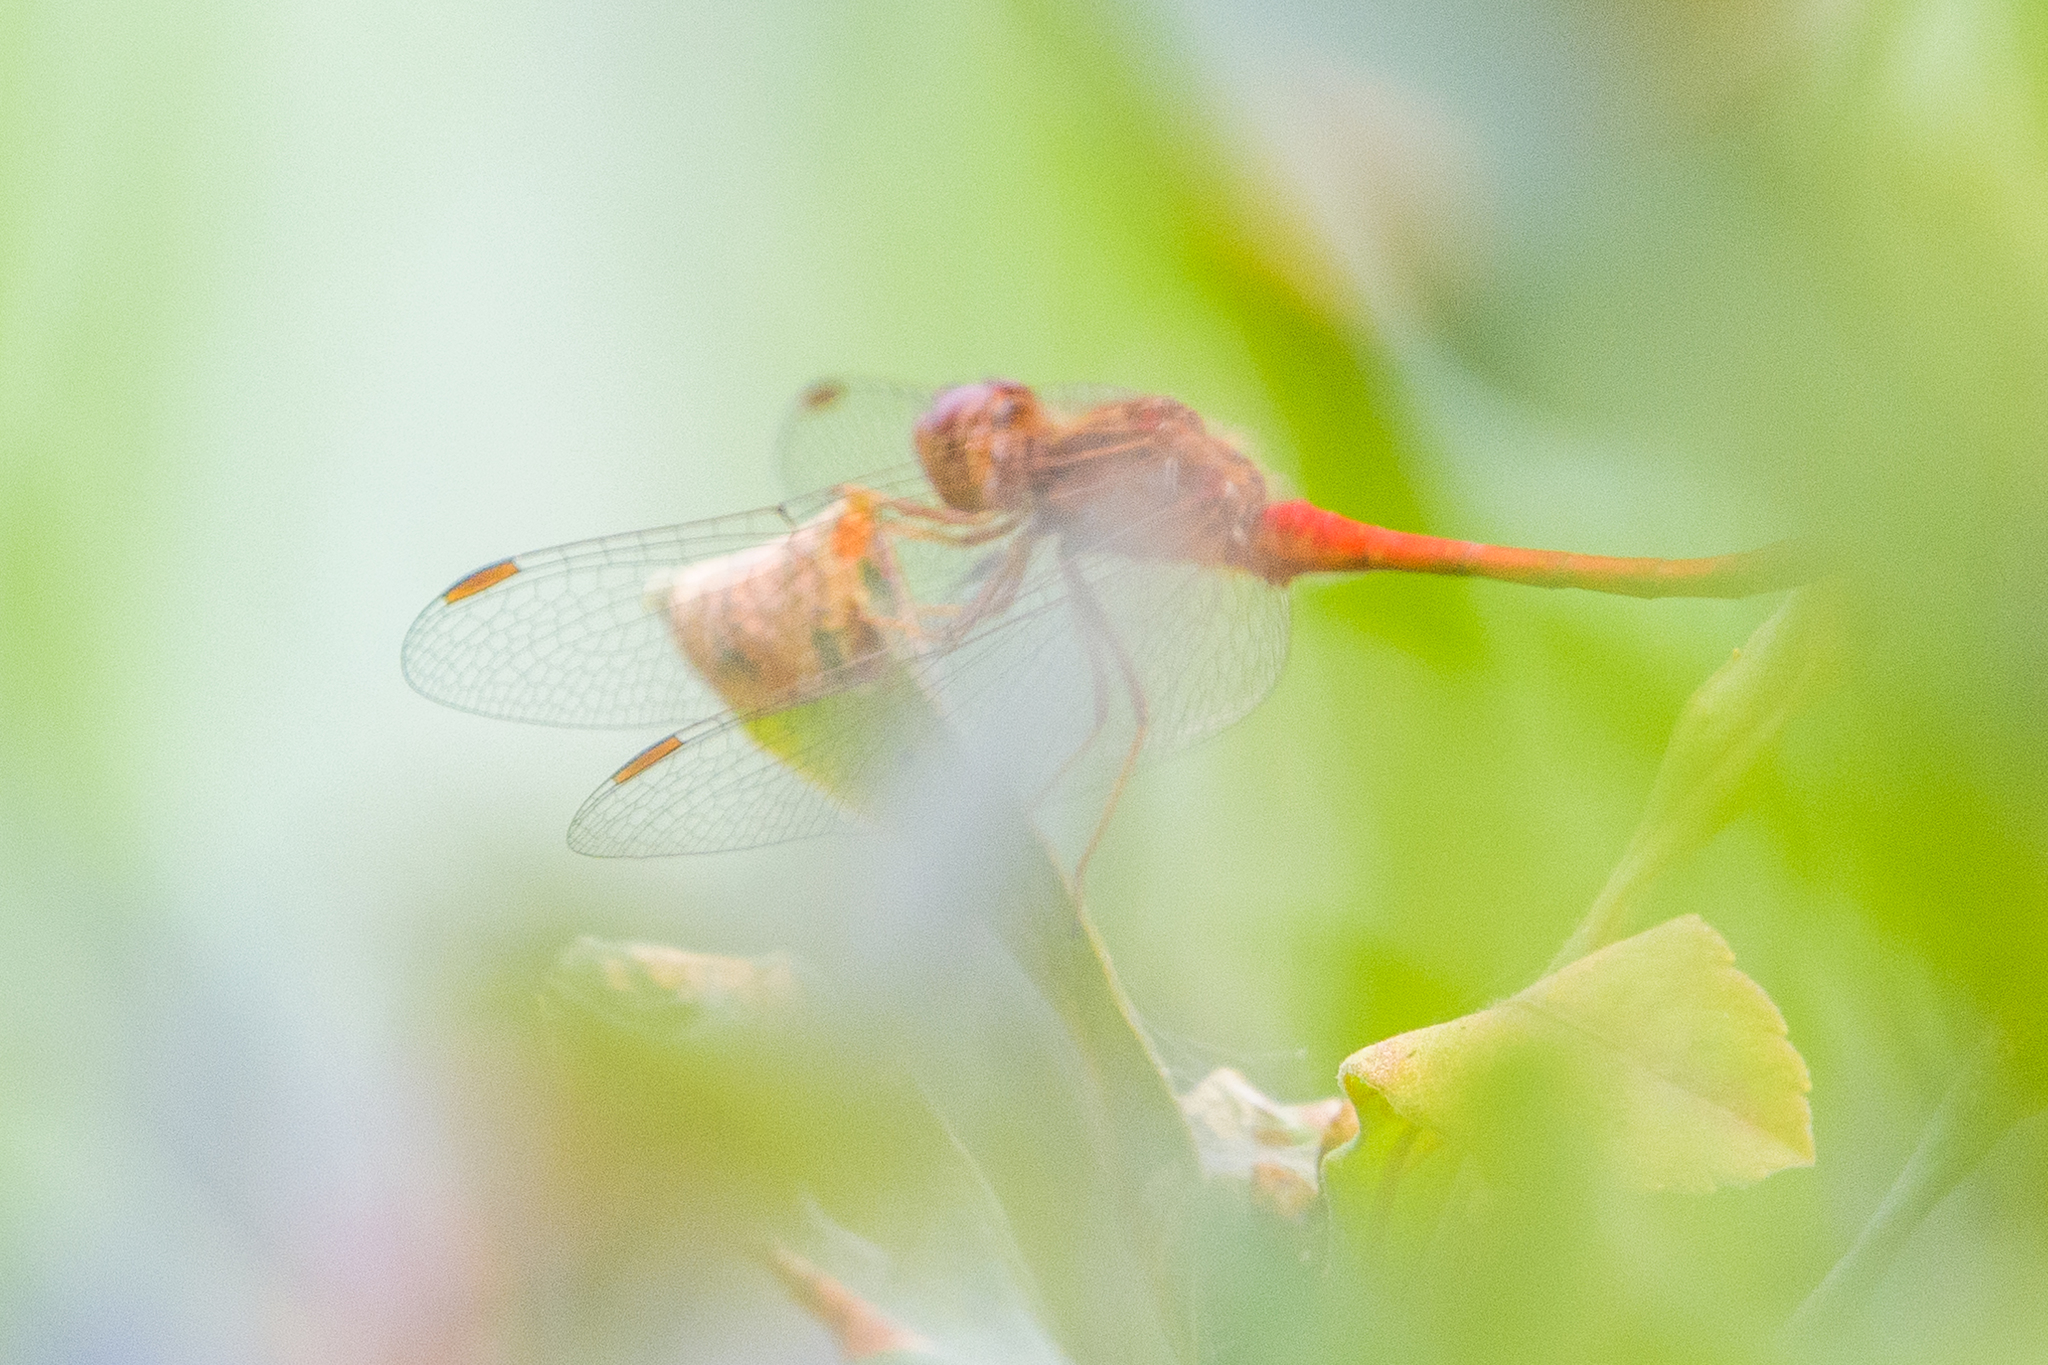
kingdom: Animalia
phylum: Arthropoda
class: Insecta
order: Odonata
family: Libellulidae
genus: Sympetrum
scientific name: Sympetrum vicinum
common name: Autumn meadowhawk
